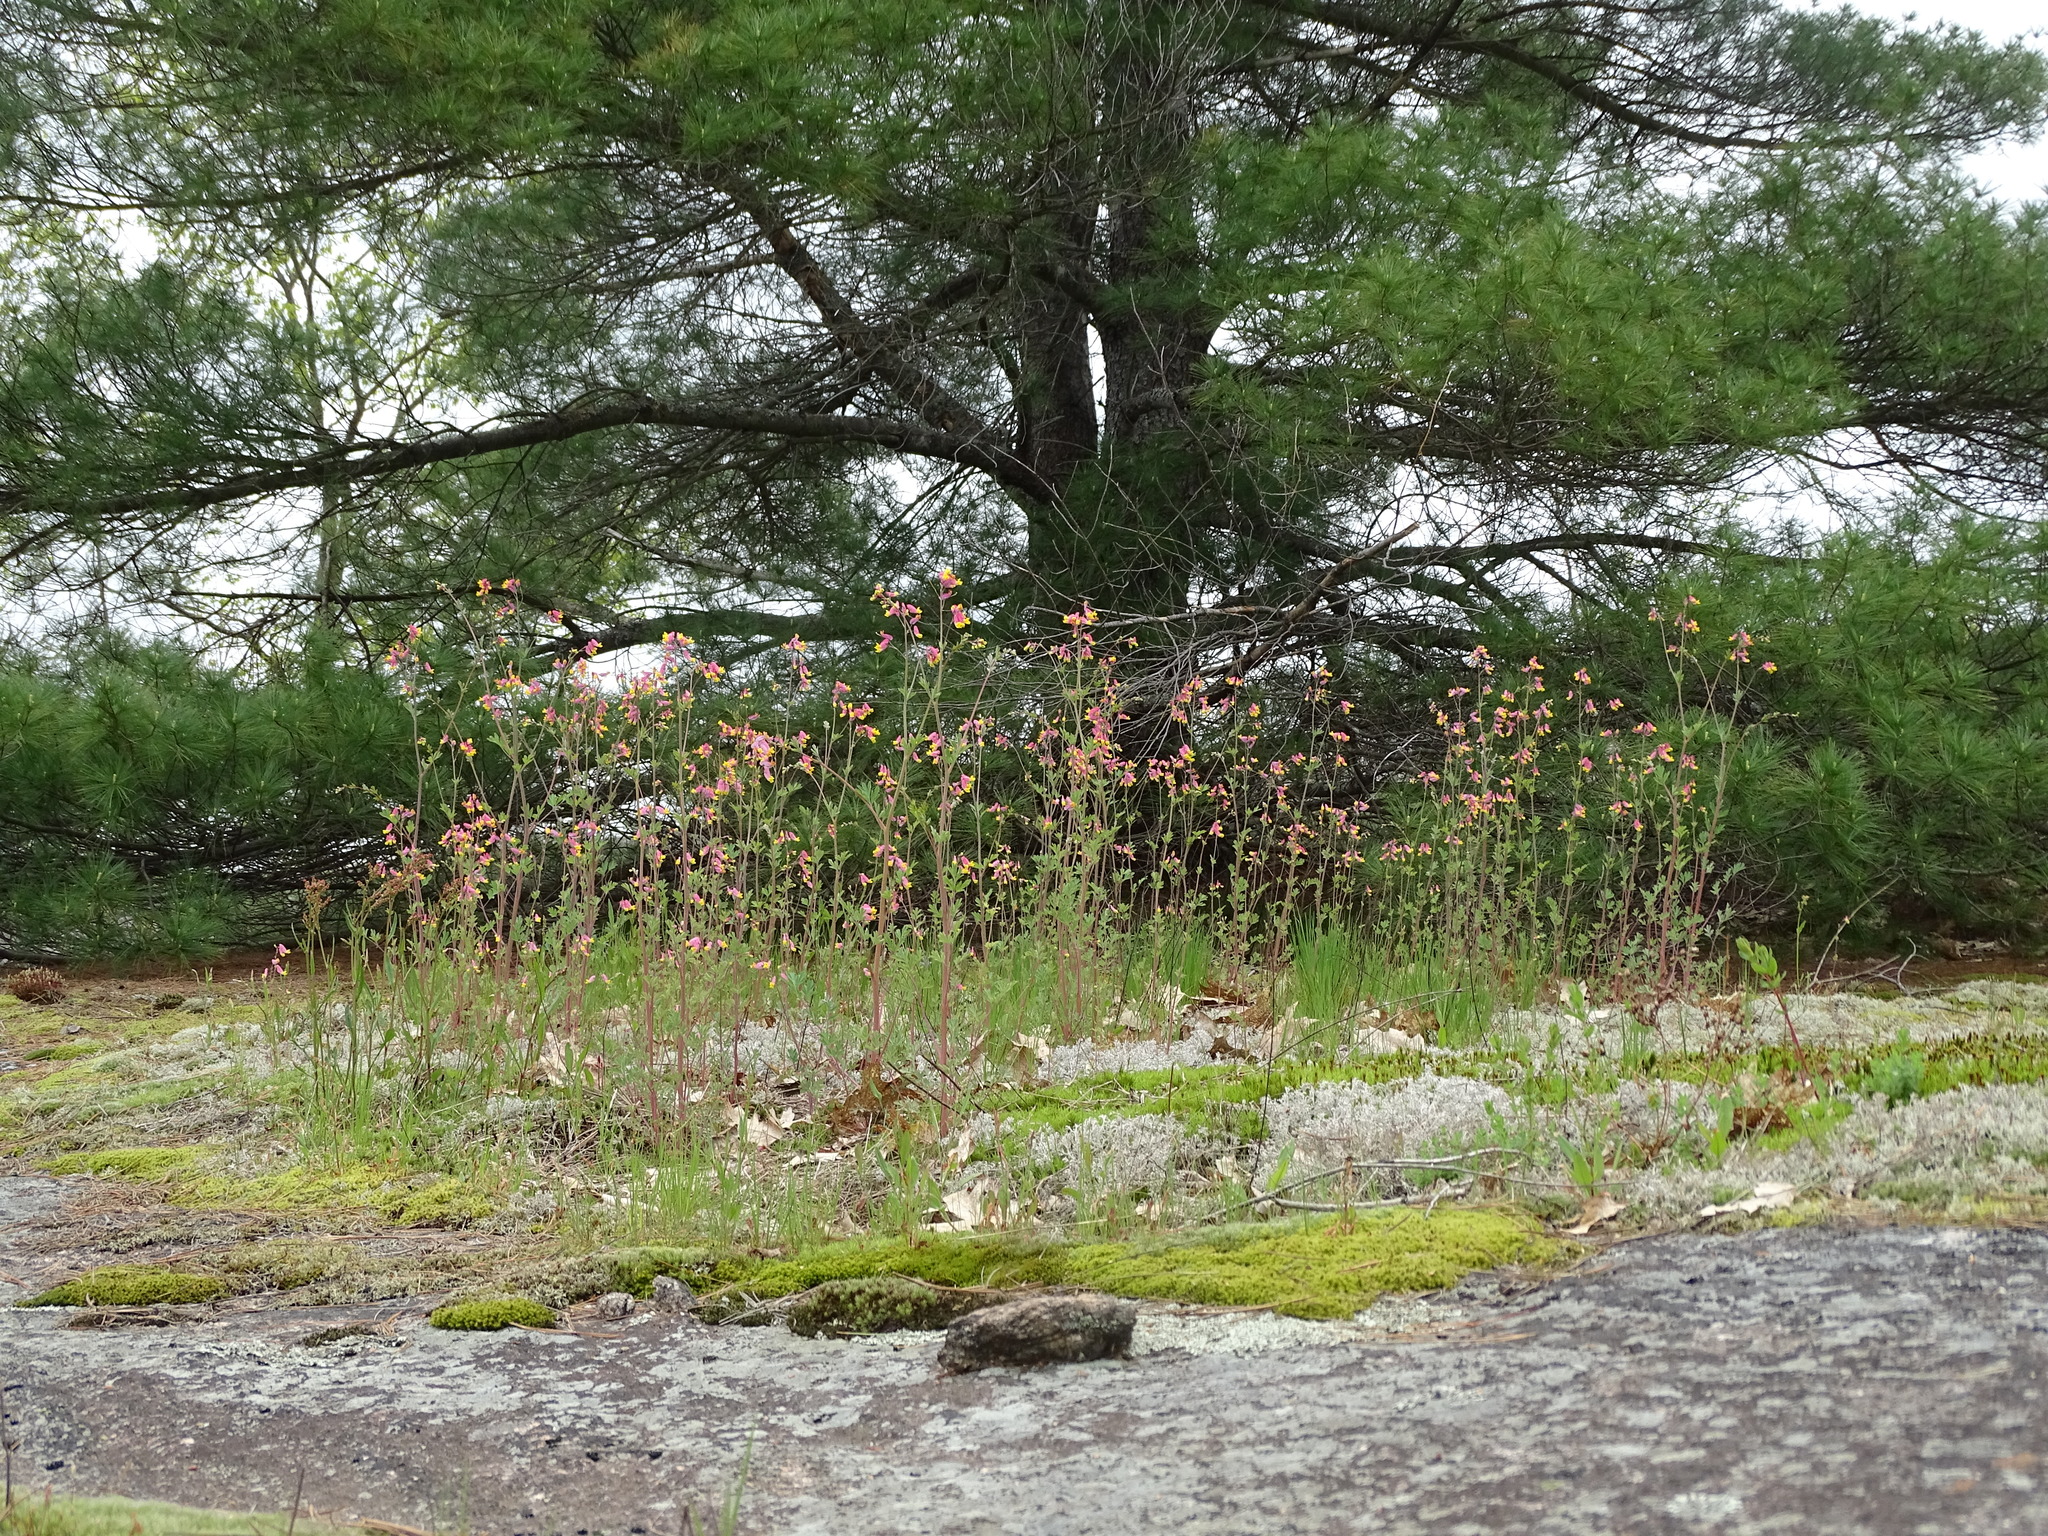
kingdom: Plantae
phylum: Tracheophyta
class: Magnoliopsida
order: Ranunculales
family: Papaveraceae
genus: Capnoides
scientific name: Capnoides sempervirens
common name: Rock harlequin
